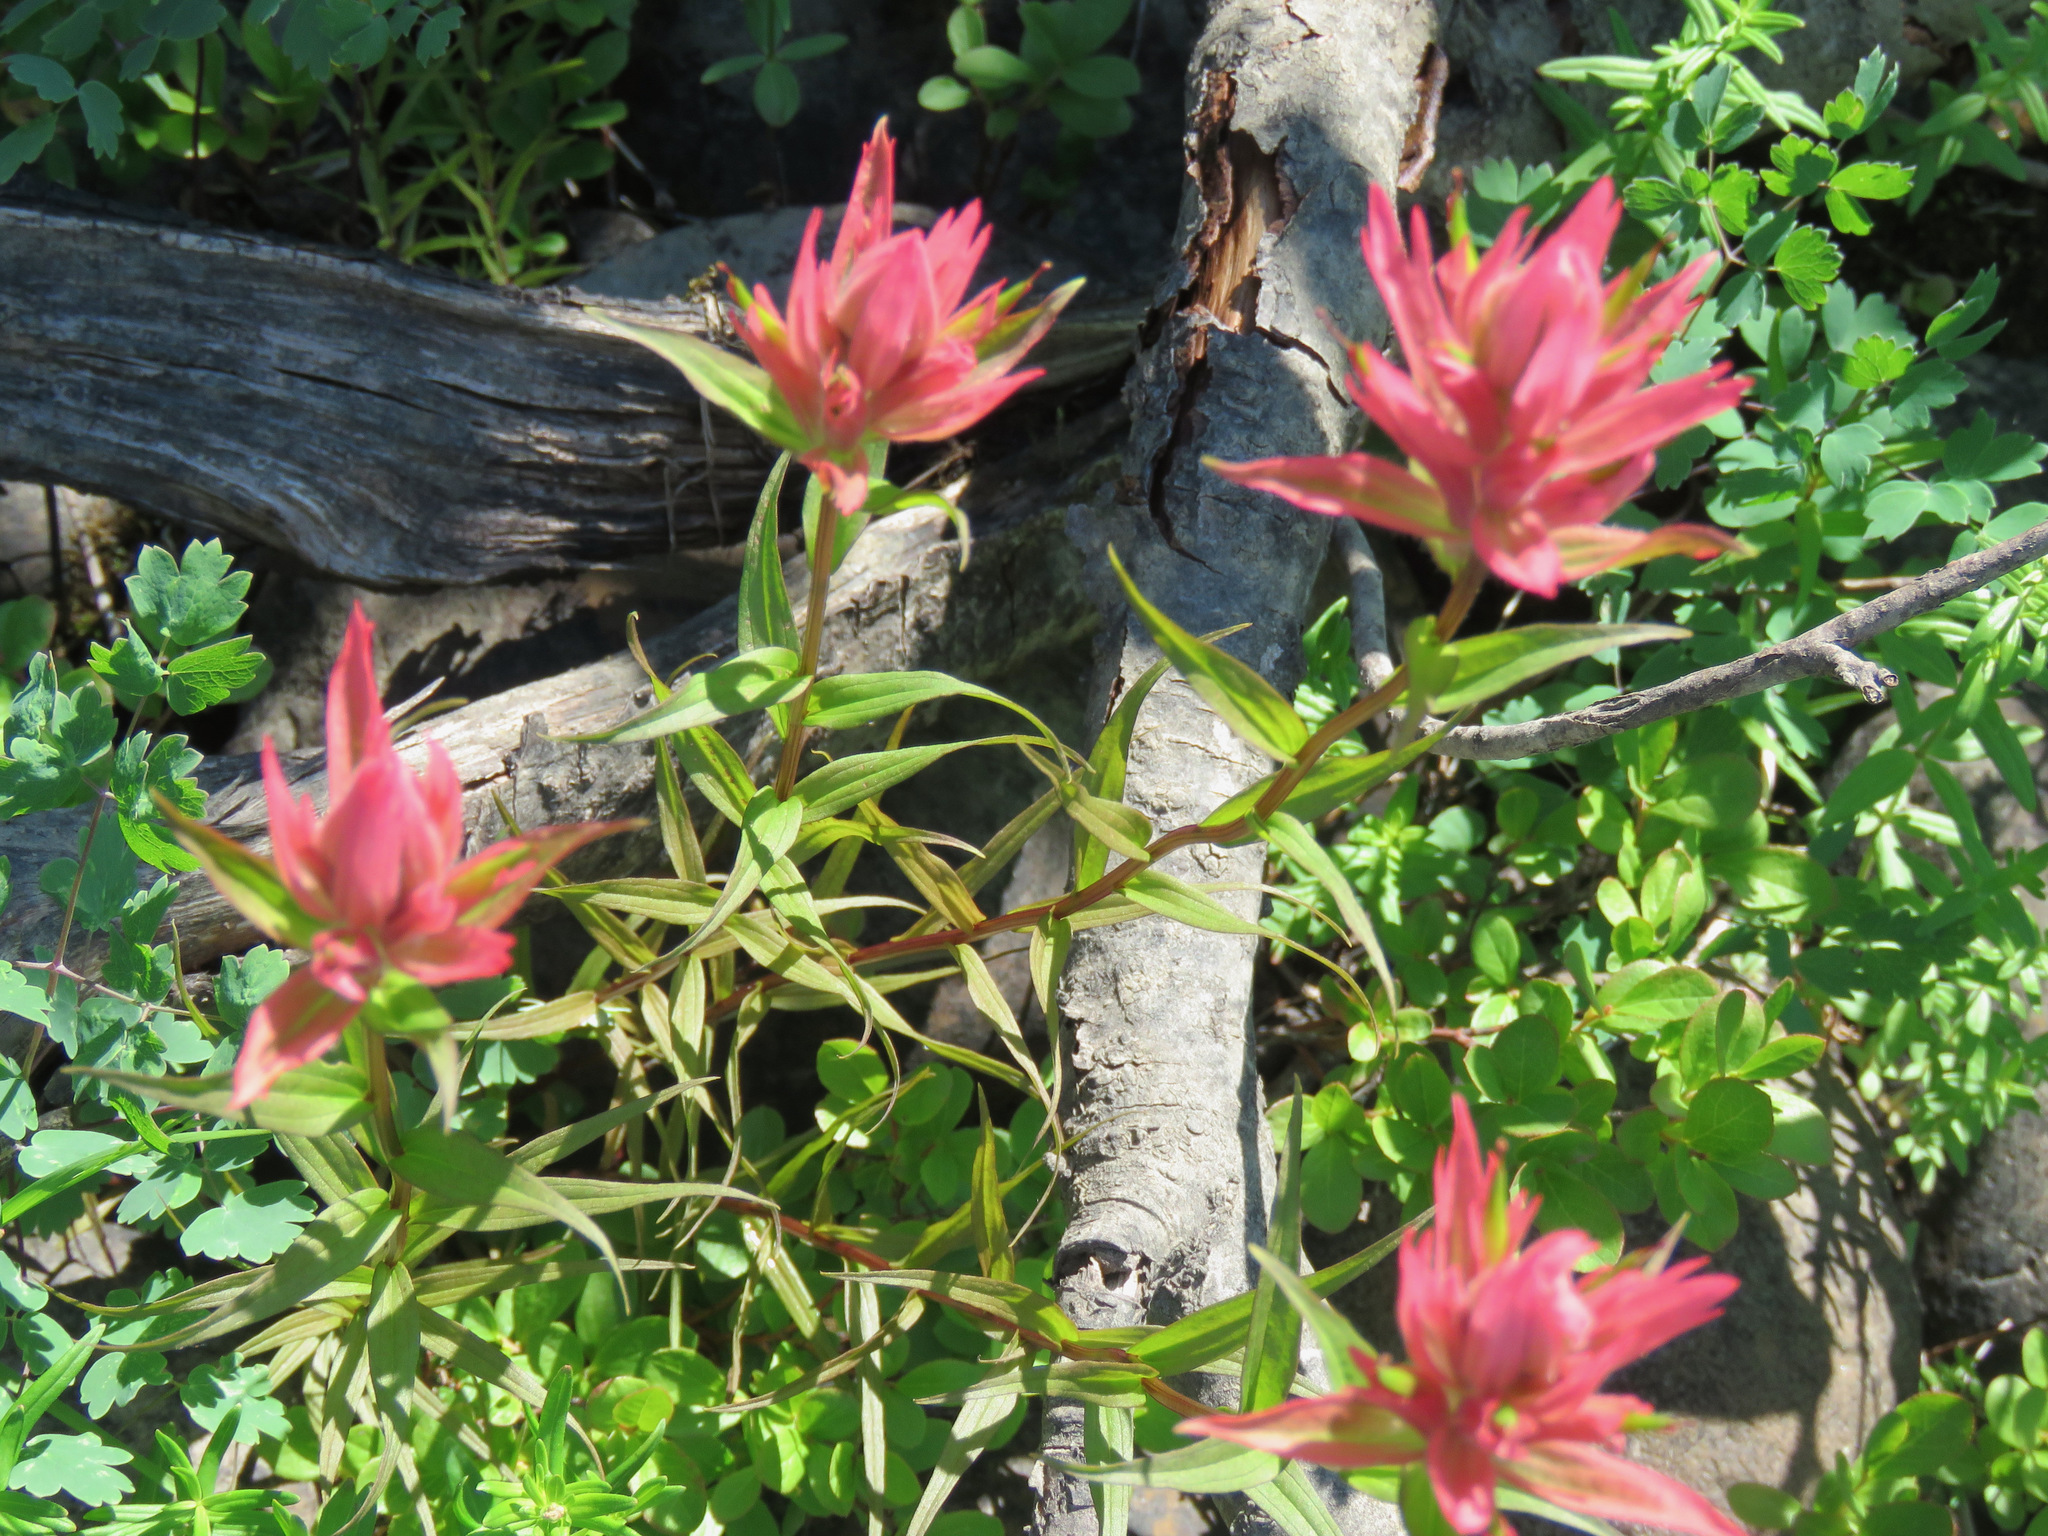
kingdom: Plantae
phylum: Tracheophyta
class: Magnoliopsida
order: Lamiales
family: Orobanchaceae
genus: Castilleja
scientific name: Castilleja miniata
